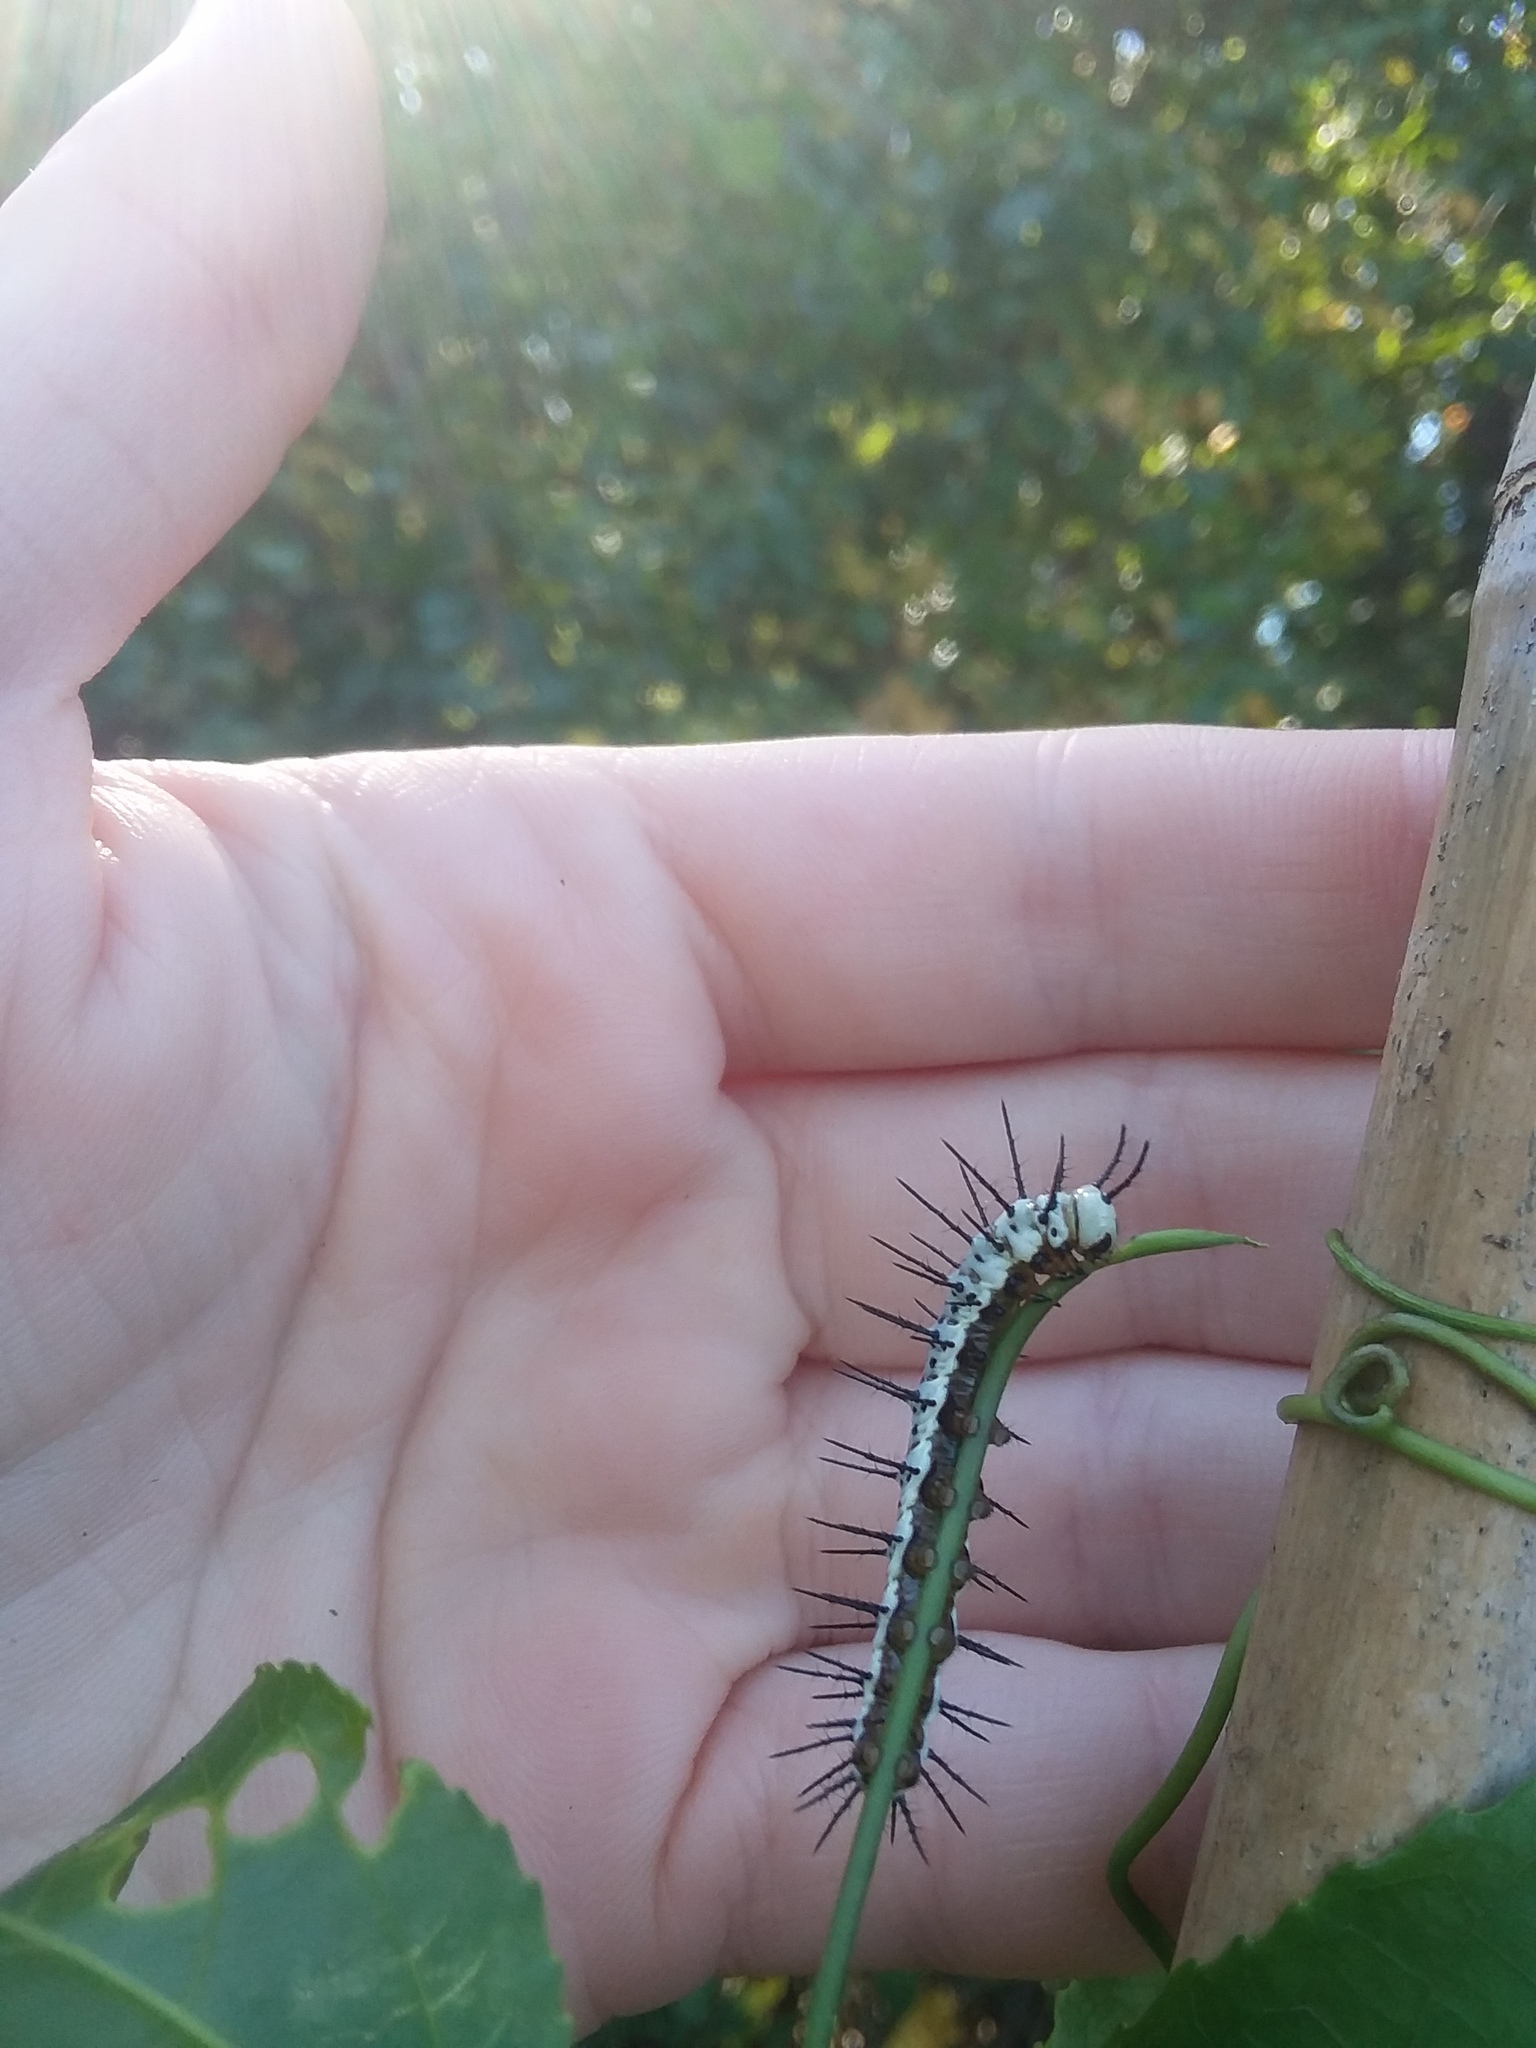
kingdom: Animalia
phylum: Arthropoda
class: Insecta
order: Lepidoptera
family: Nymphalidae
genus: Heliconius
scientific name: Heliconius charithonia
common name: Zebra long wing
